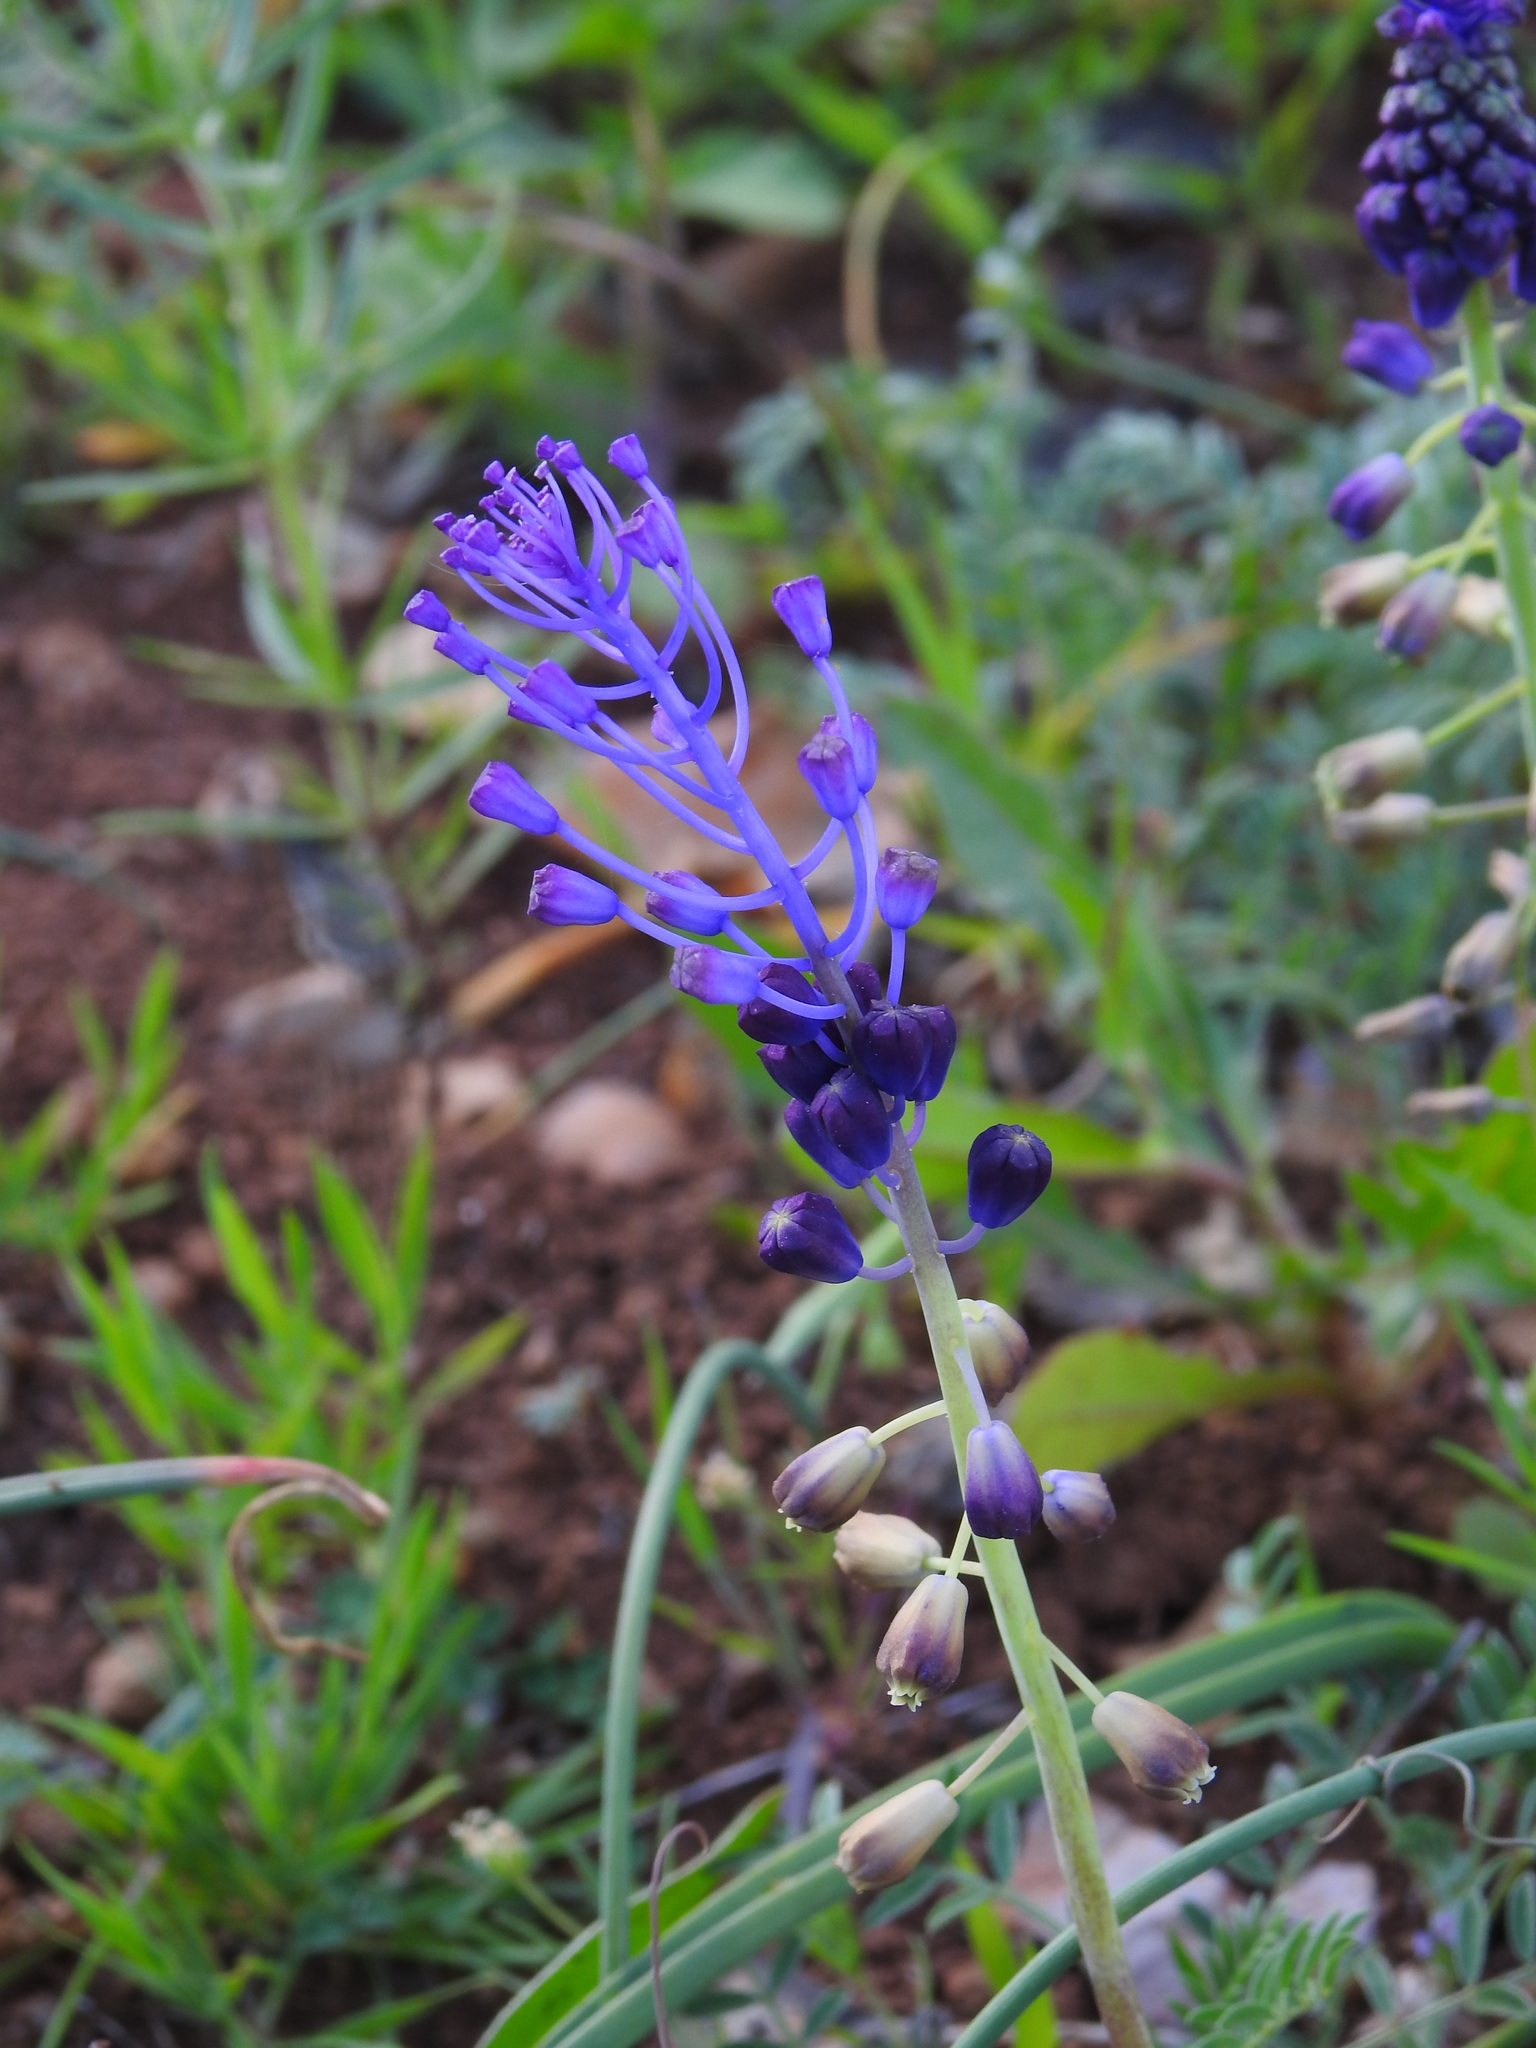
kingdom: Plantae
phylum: Tracheophyta
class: Liliopsida
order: Asparagales
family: Asparagaceae
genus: Muscari
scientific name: Muscari comosum
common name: Tassel hyacinth
